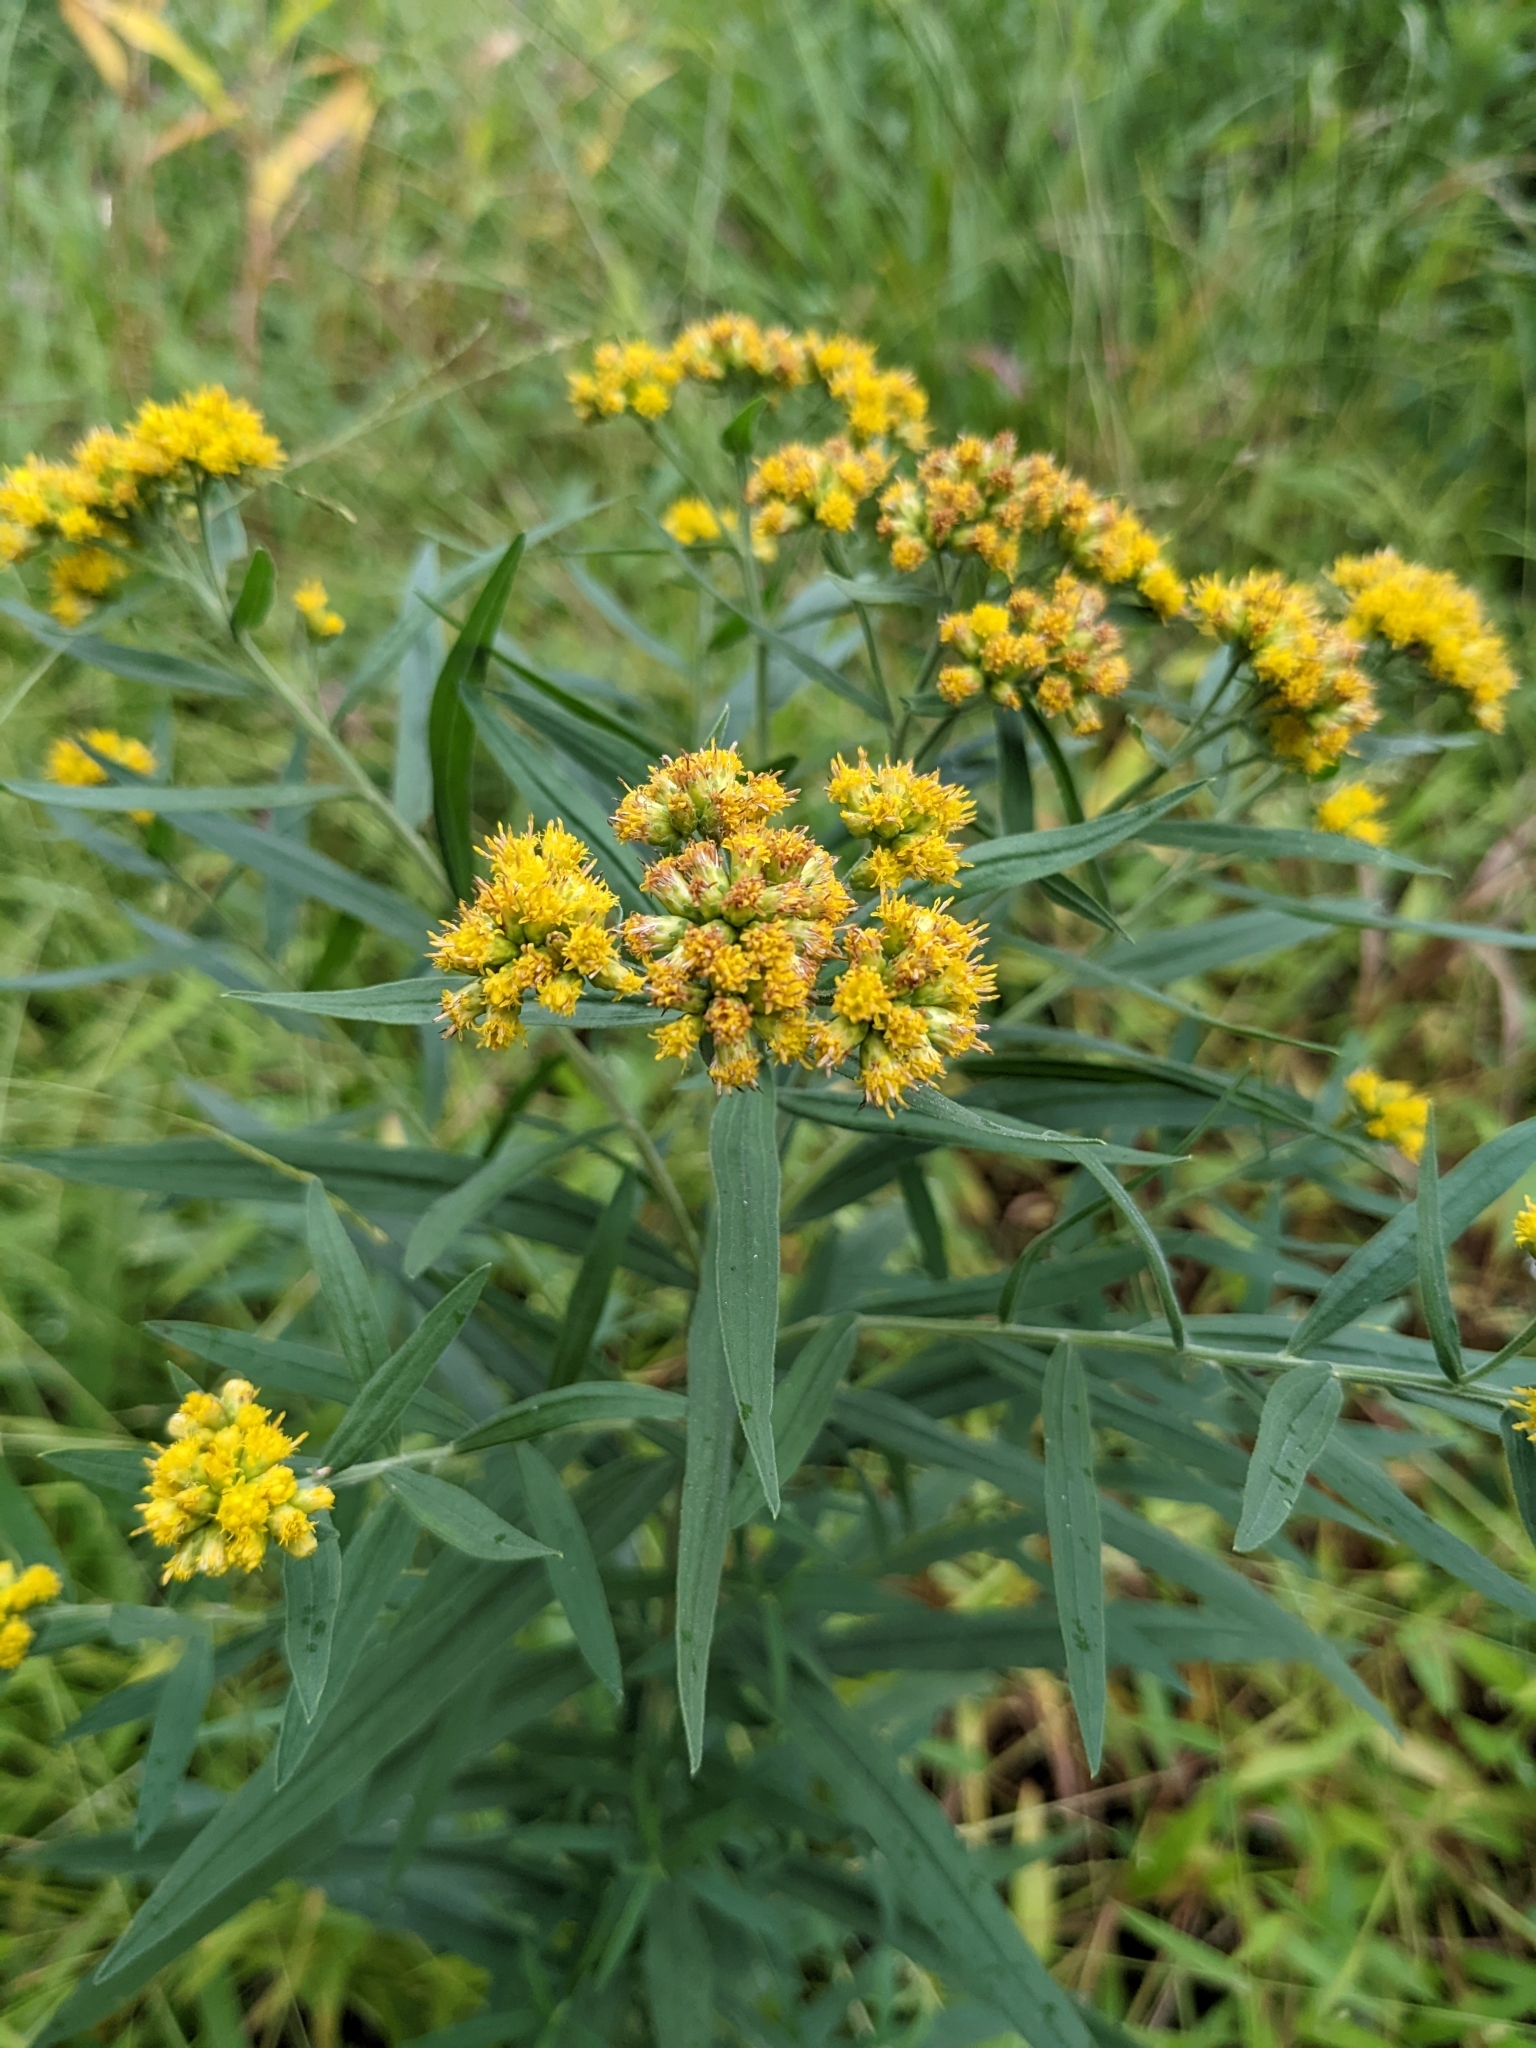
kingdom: Plantae
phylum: Tracheophyta
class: Magnoliopsida
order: Asterales
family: Asteraceae
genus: Euthamia
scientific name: Euthamia graminifolia
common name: Common goldentop
